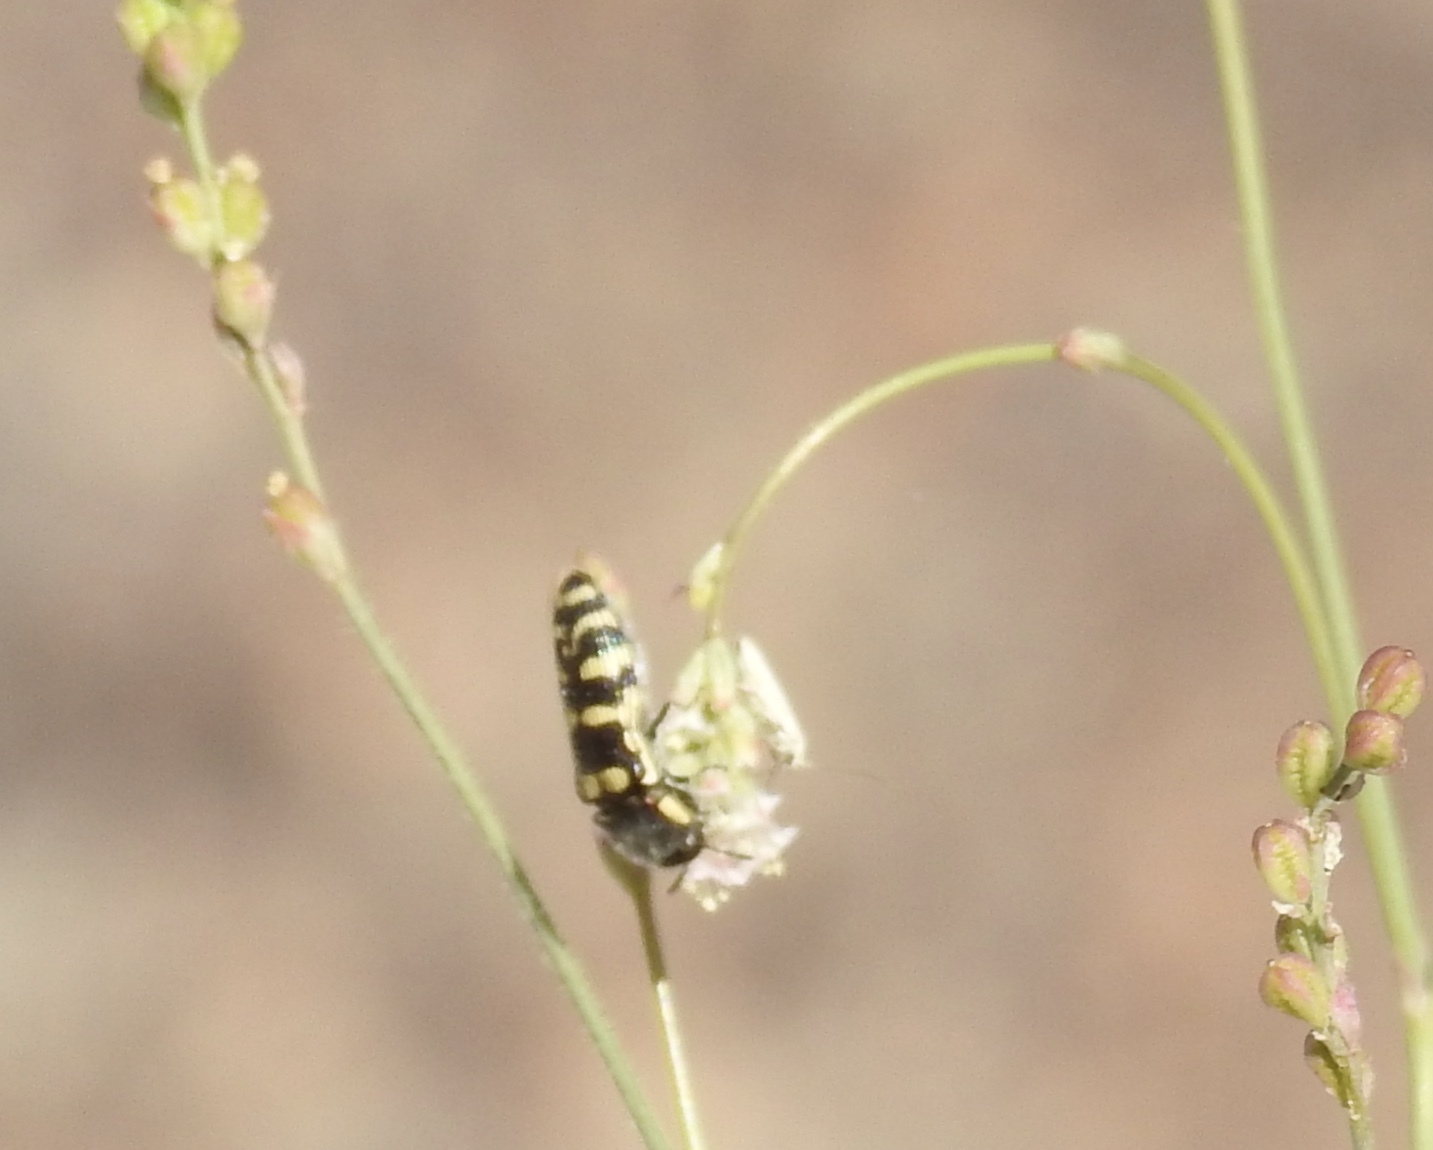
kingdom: Animalia
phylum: Arthropoda
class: Insecta
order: Coleoptera
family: Buprestidae
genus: Acmaeodera
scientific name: Acmaeodera alicia
